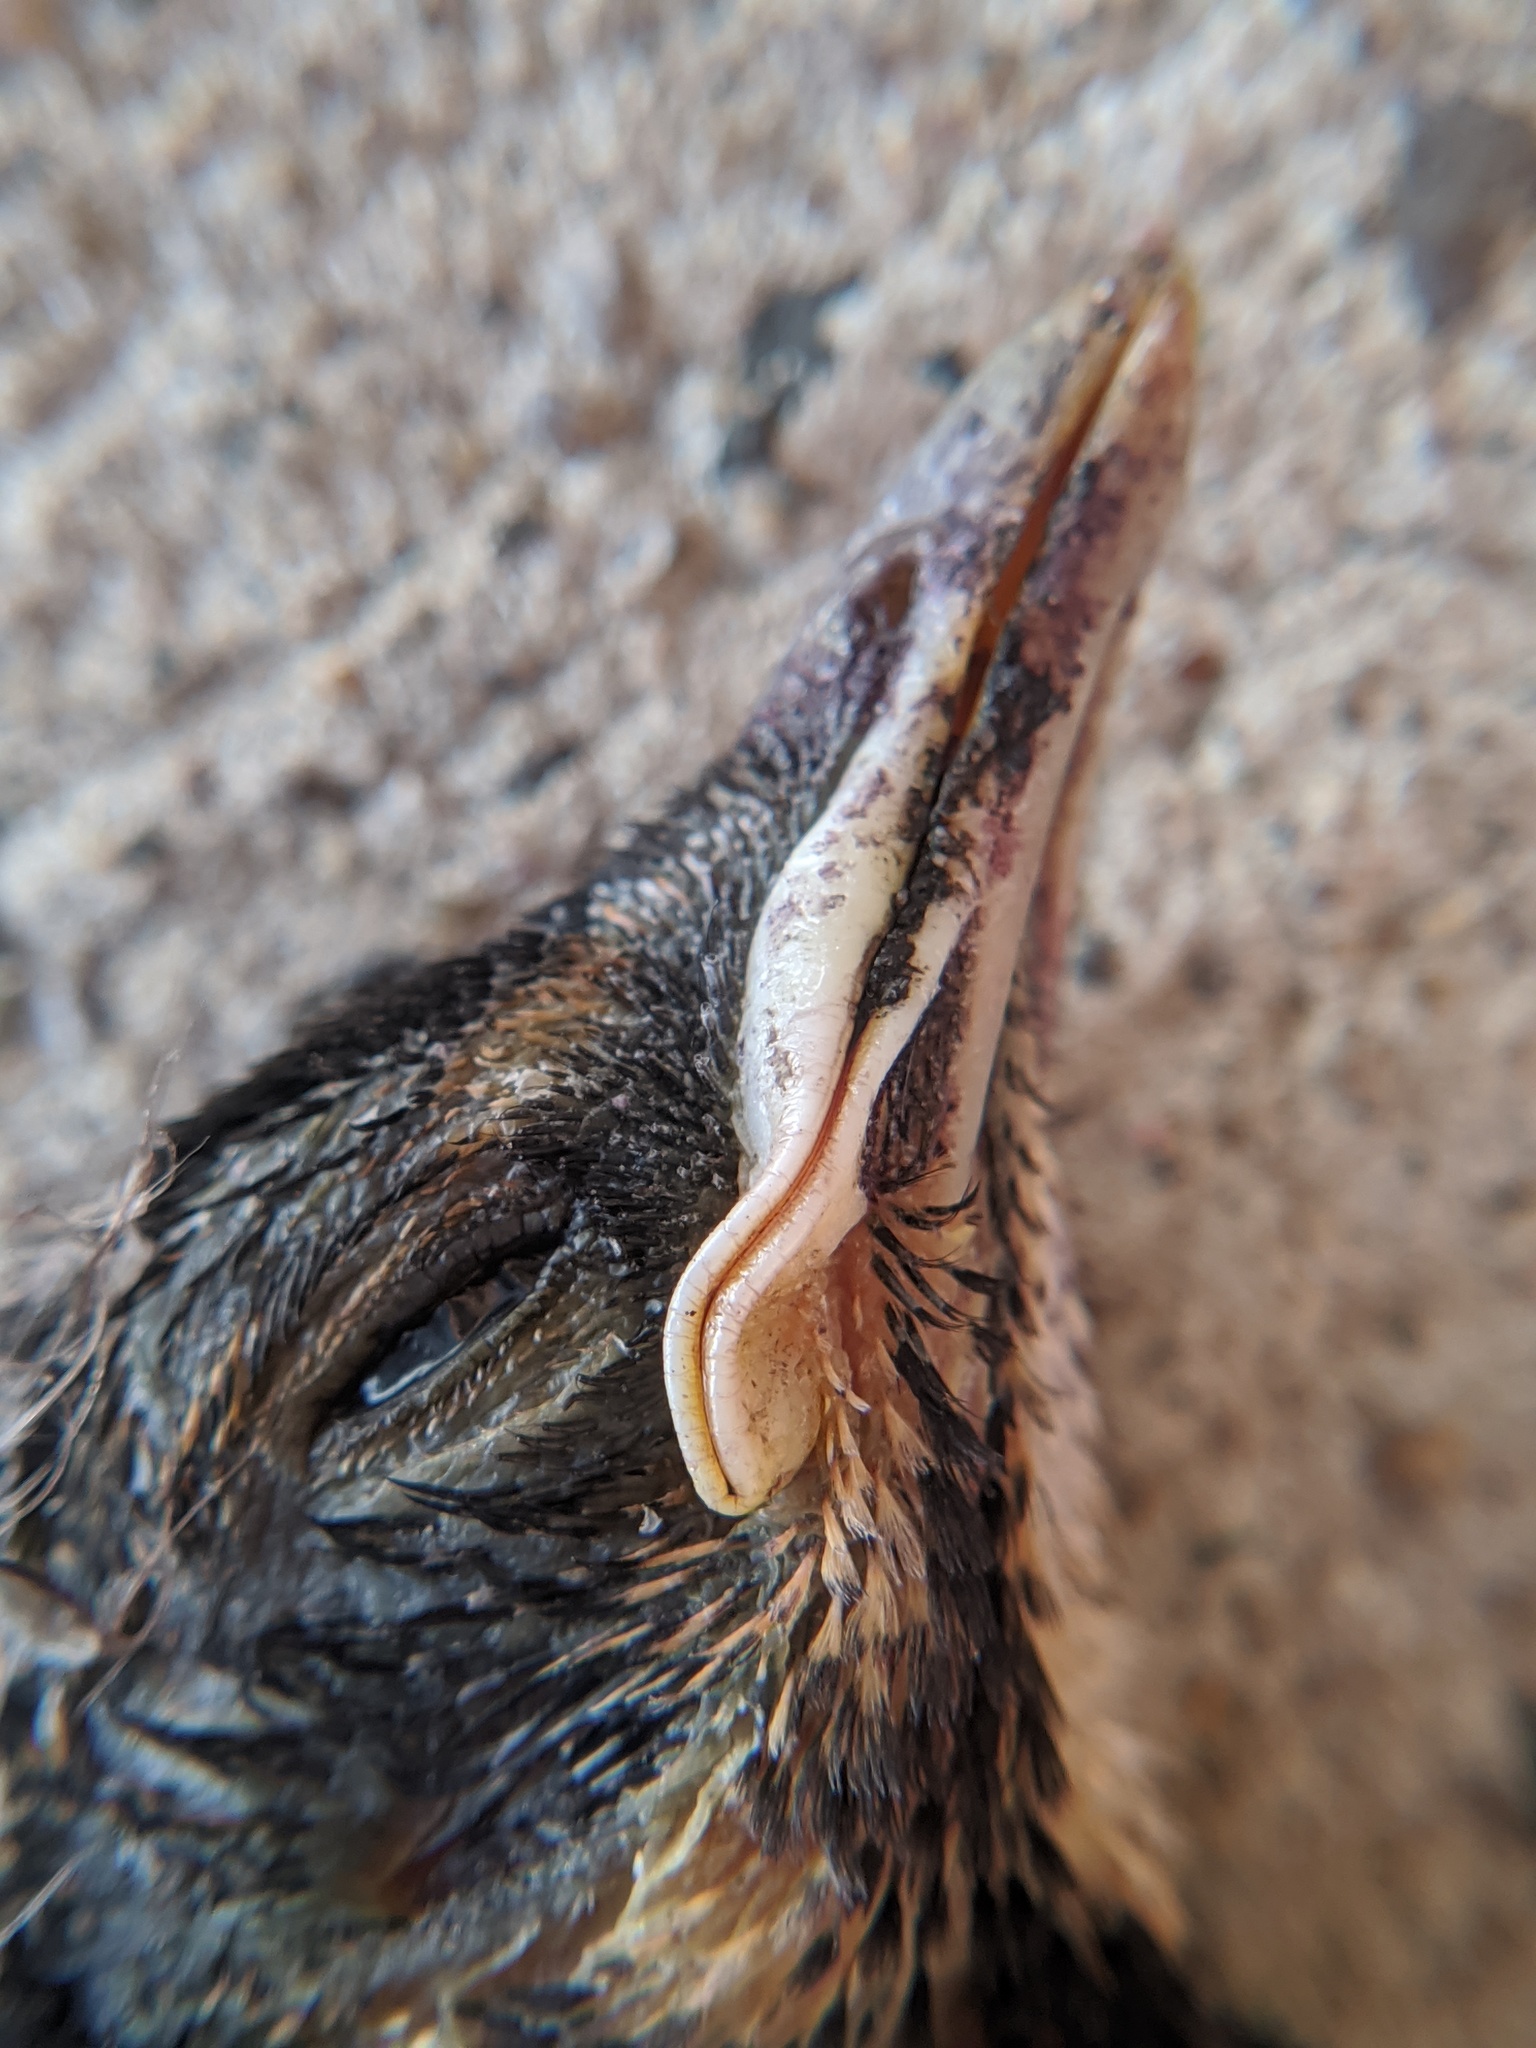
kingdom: Animalia
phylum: Chordata
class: Aves
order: Passeriformes
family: Turdidae
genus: Turdus
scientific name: Turdus migratorius
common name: American robin
